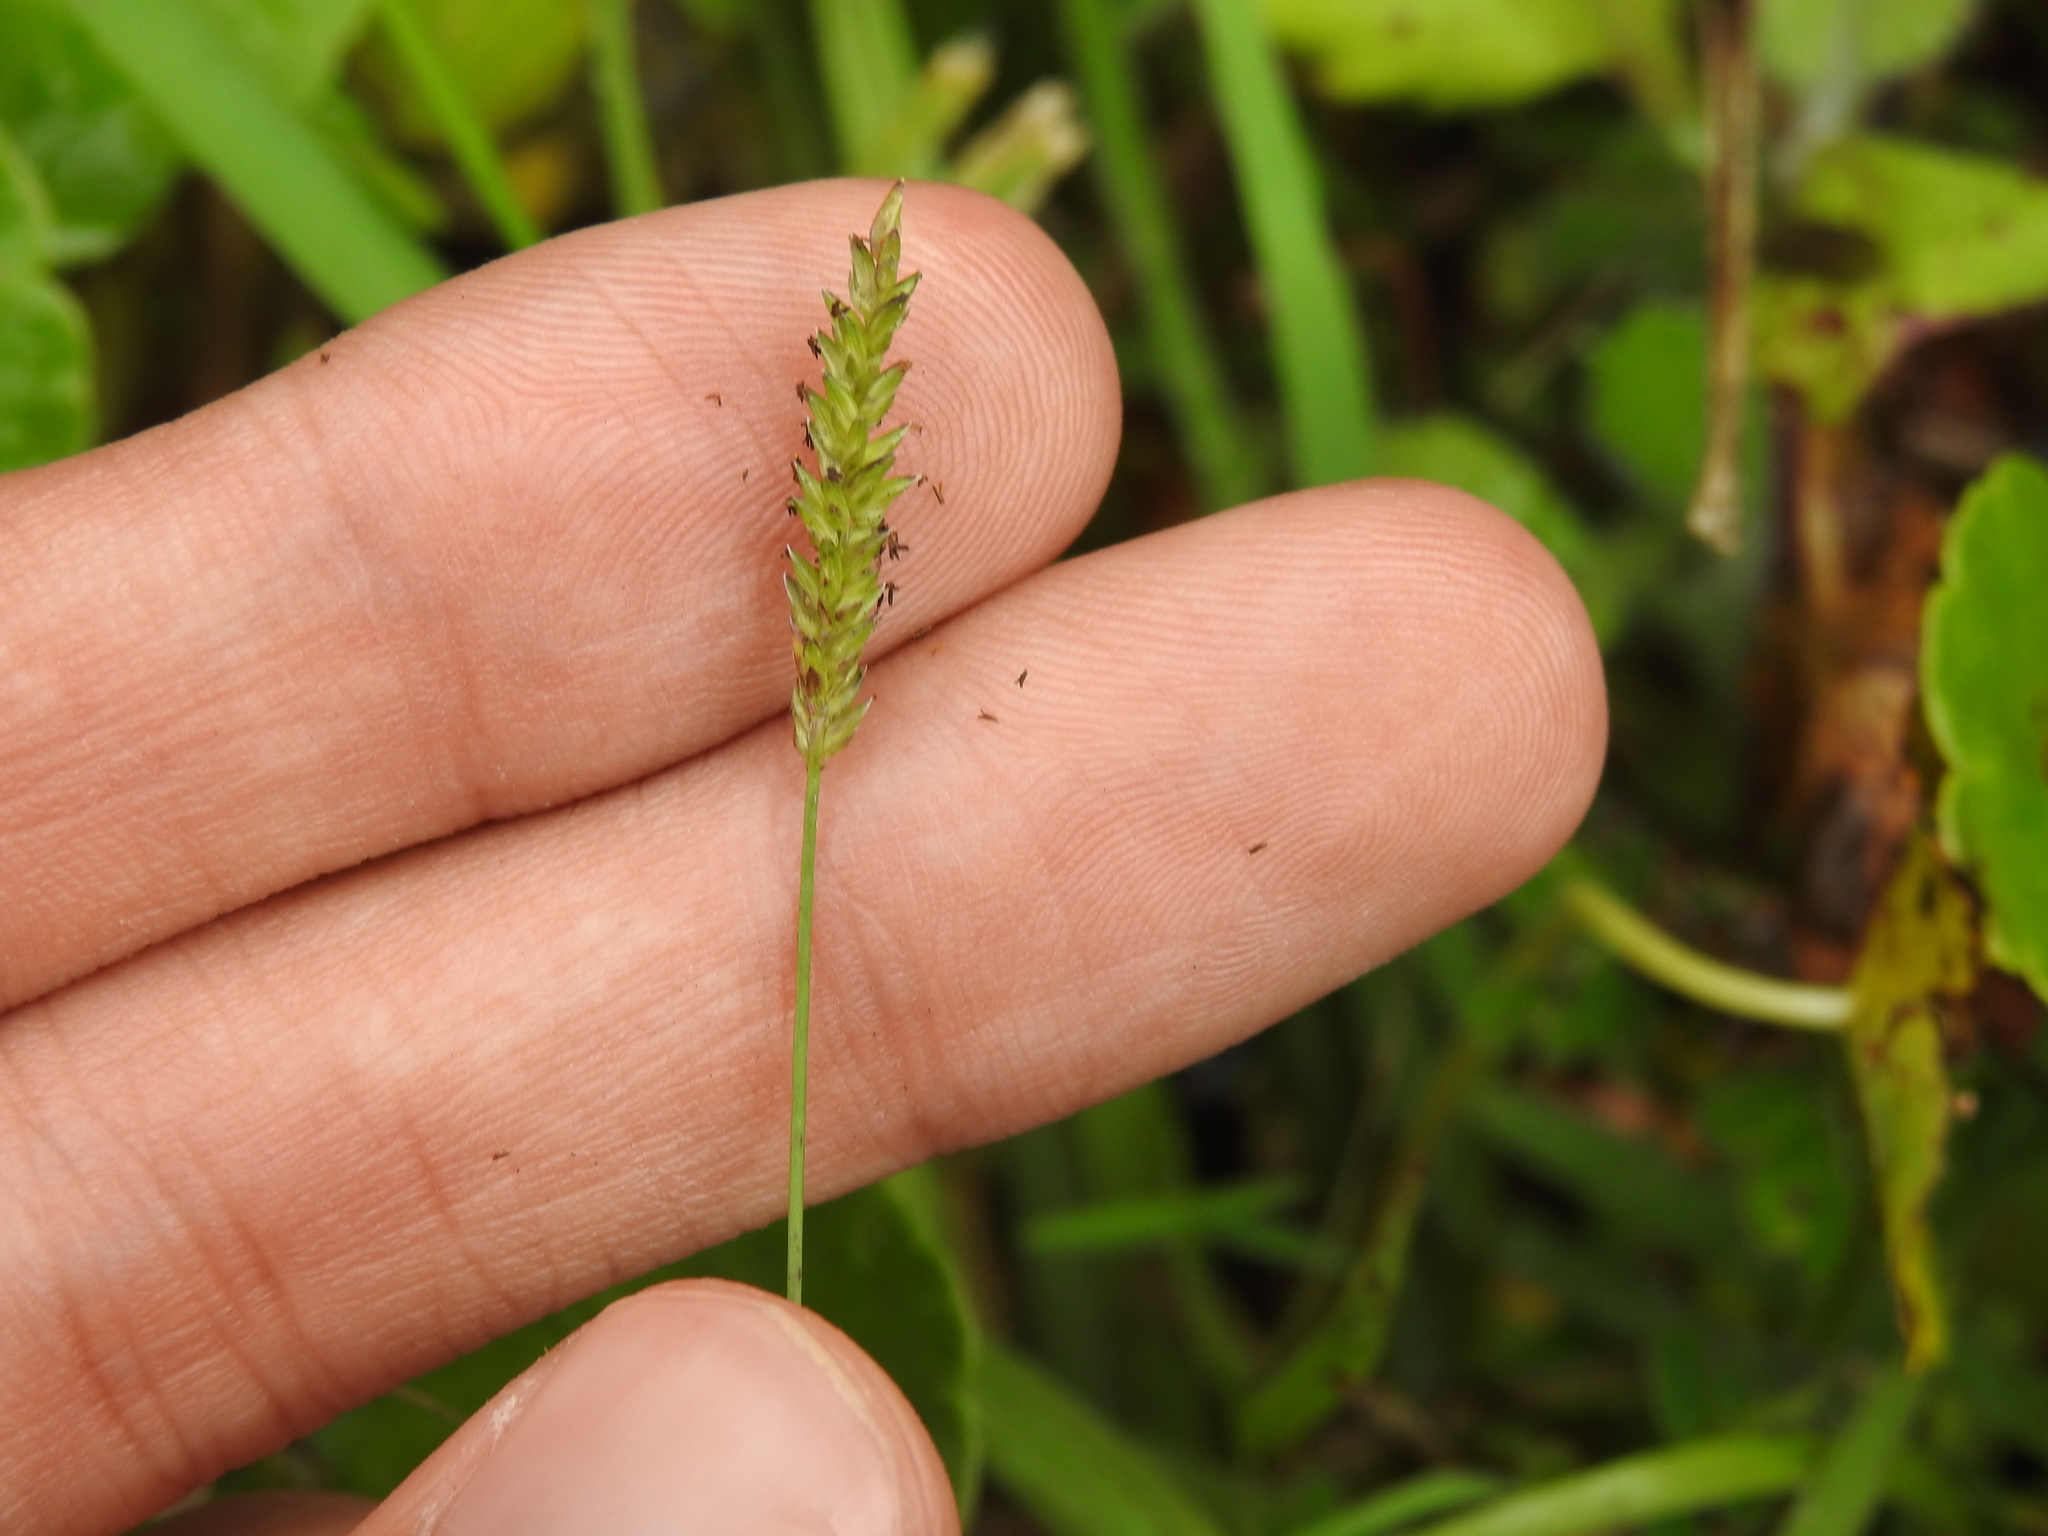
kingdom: Plantae
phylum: Tracheophyta
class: Liliopsida
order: Poales
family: Poaceae
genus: Sacciolepis
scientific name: Sacciolepis indica
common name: Glenwoodgrass
